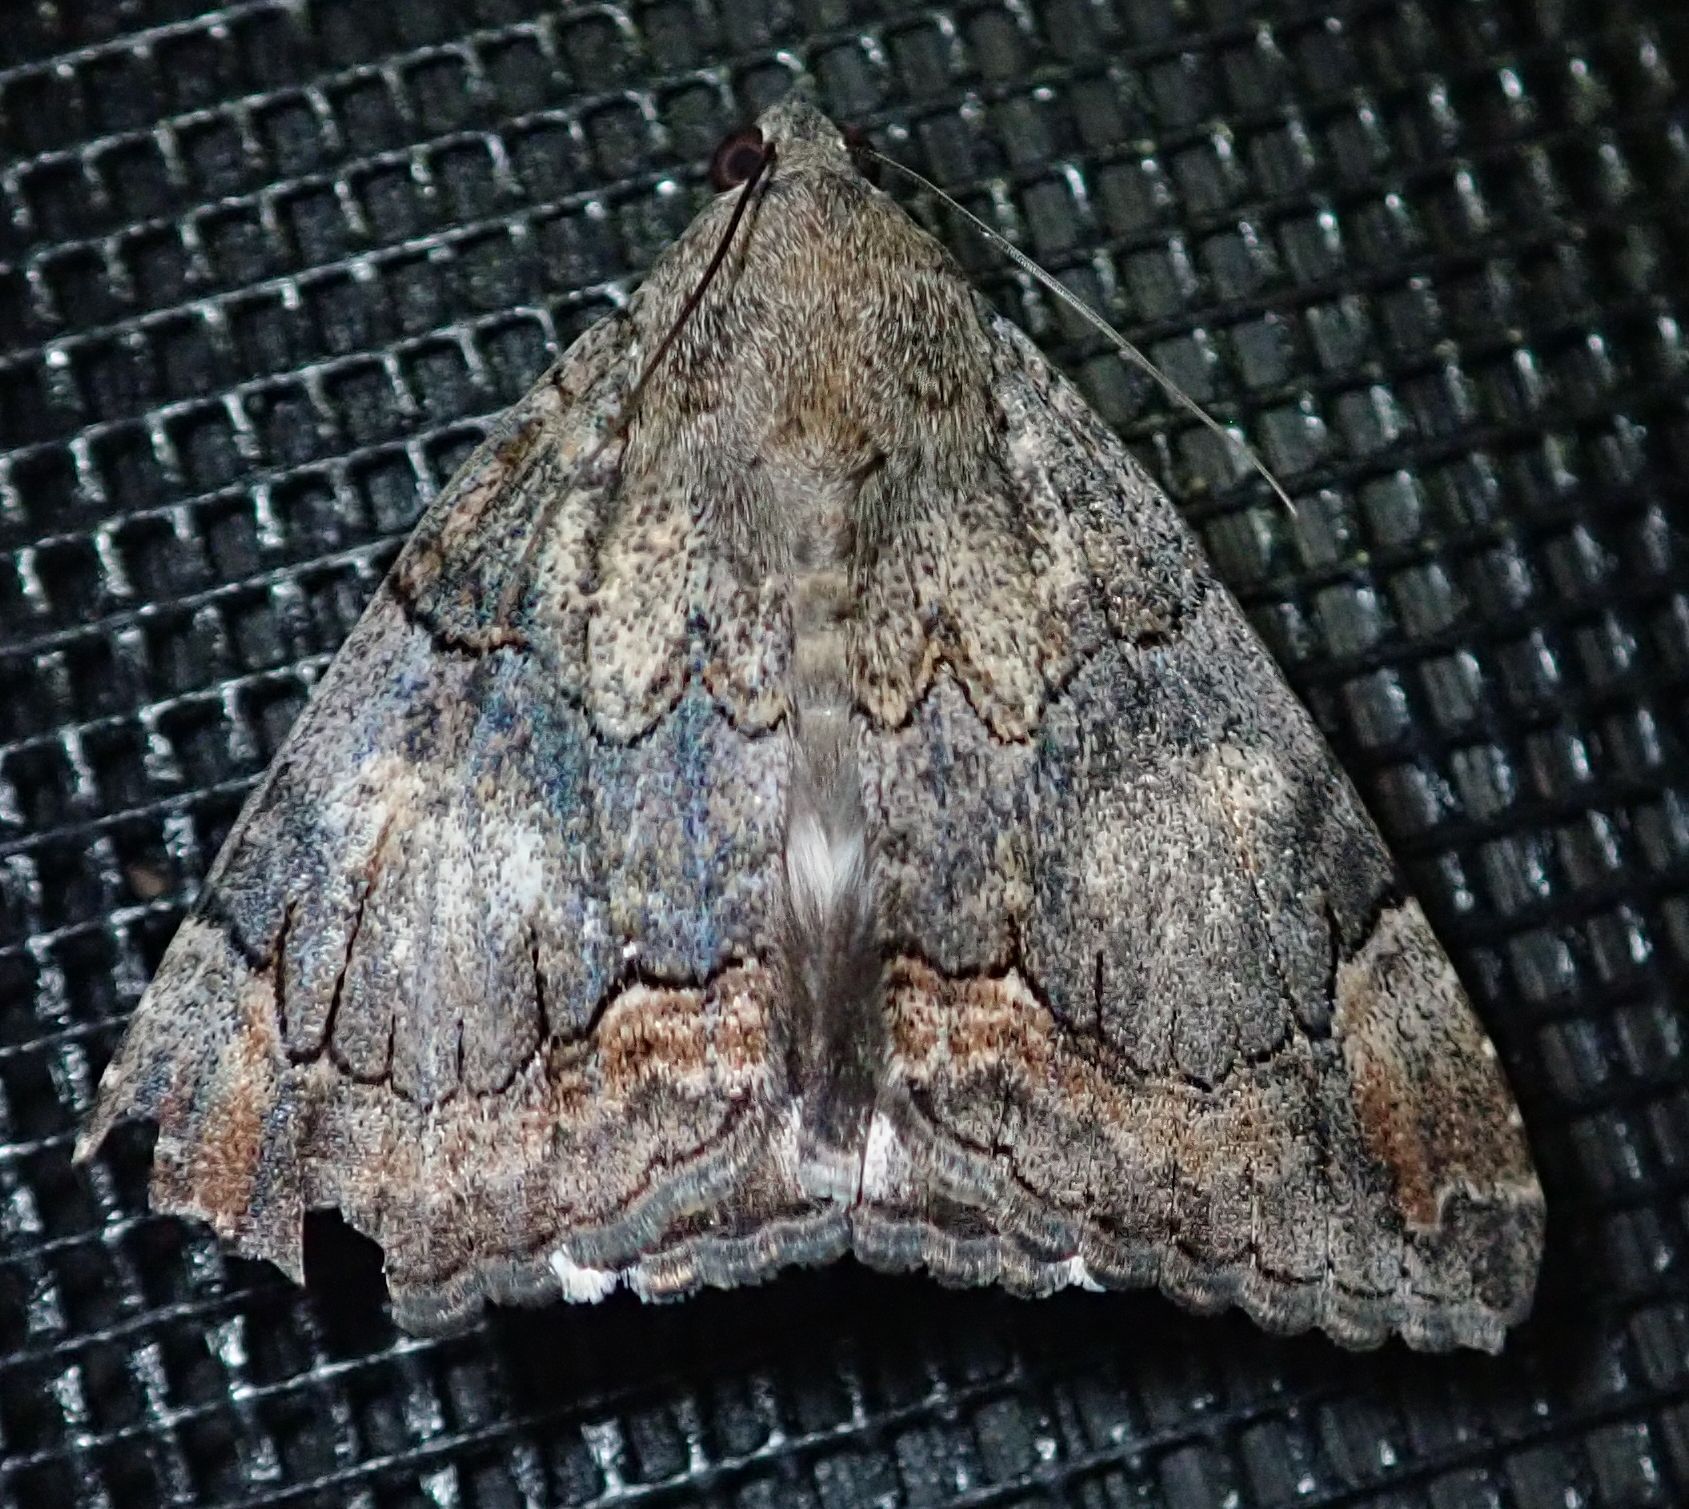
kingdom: Animalia
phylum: Arthropoda
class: Insecta
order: Lepidoptera
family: Erebidae
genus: Achaea
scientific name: Achaea catella
